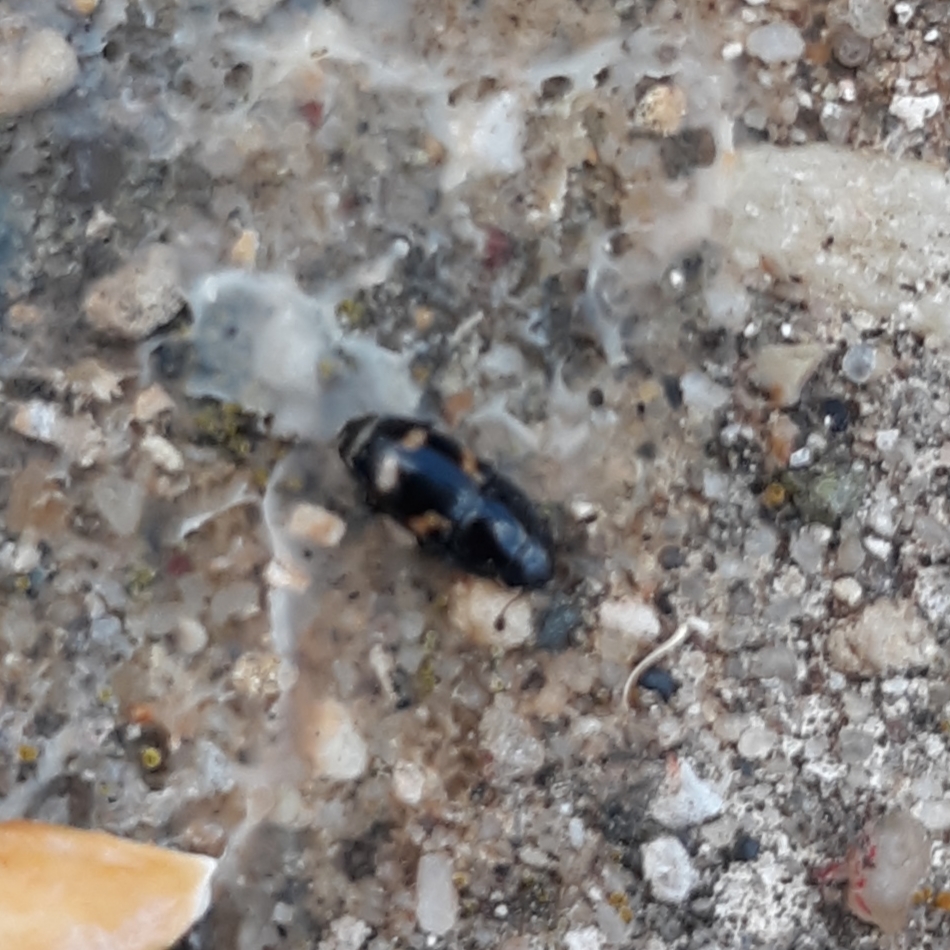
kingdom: Animalia
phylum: Arthropoda
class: Insecta
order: Coleoptera
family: Nitidulidae
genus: Glischrochilus
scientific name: Glischrochilus quadrisignatus
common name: Picnic beetle
